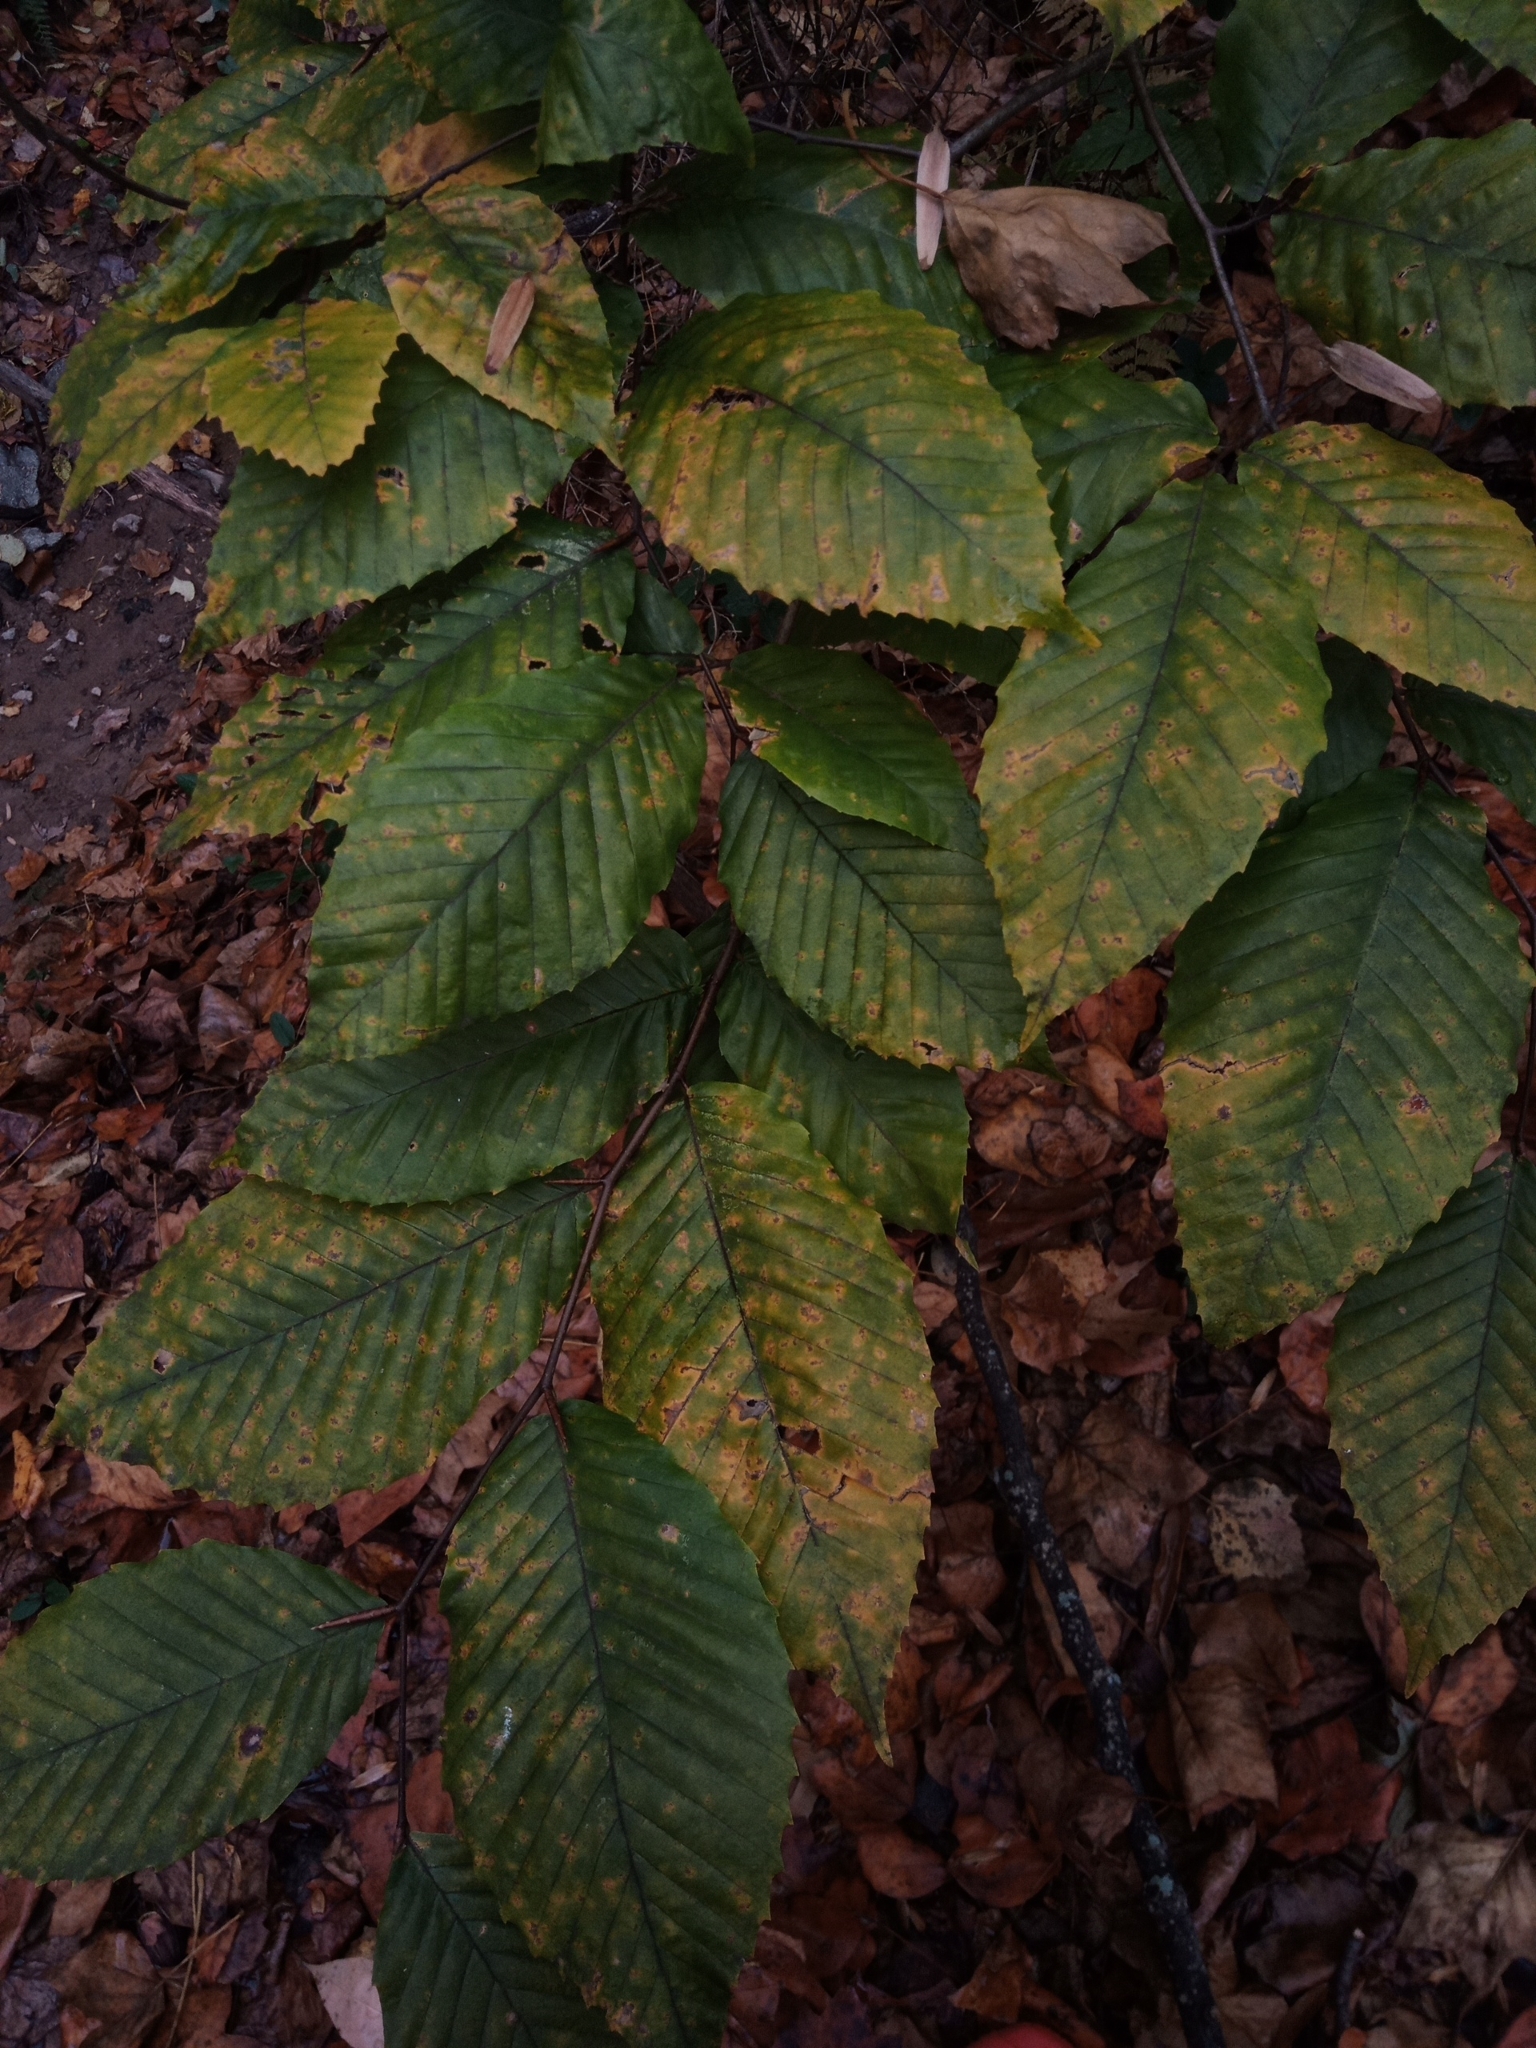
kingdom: Plantae
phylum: Tracheophyta
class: Magnoliopsida
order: Fagales
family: Fagaceae
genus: Fagus
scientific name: Fagus grandifolia
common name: American beech
